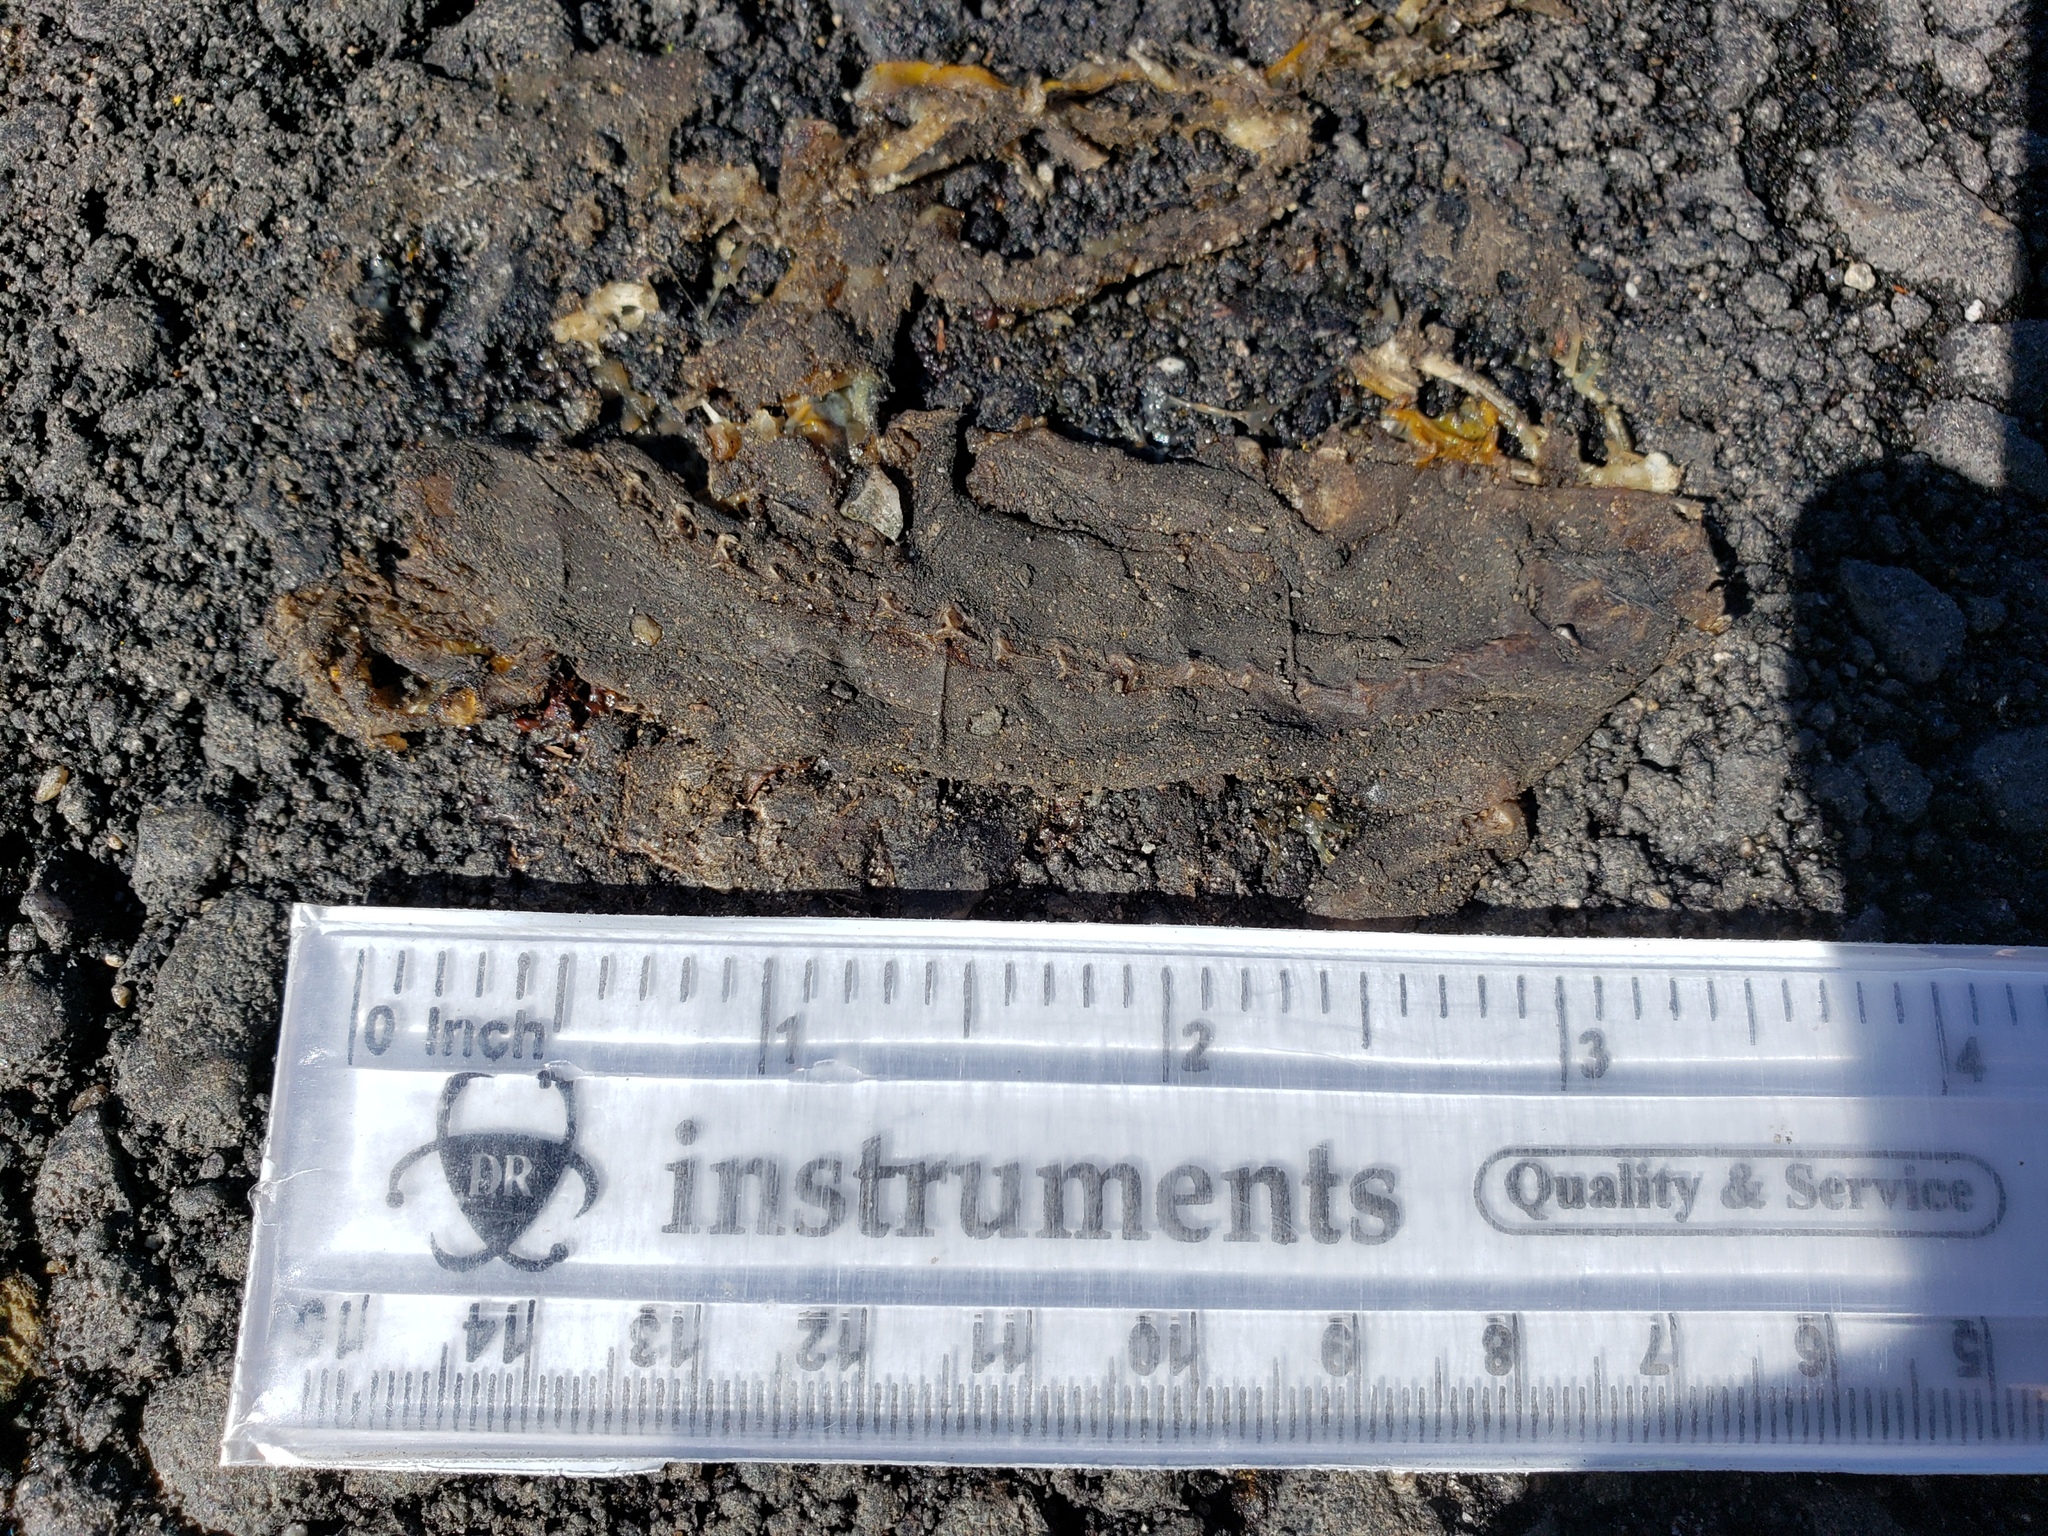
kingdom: Animalia
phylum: Chordata
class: Amphibia
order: Caudata
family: Salamandridae
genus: Taricha
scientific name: Taricha
